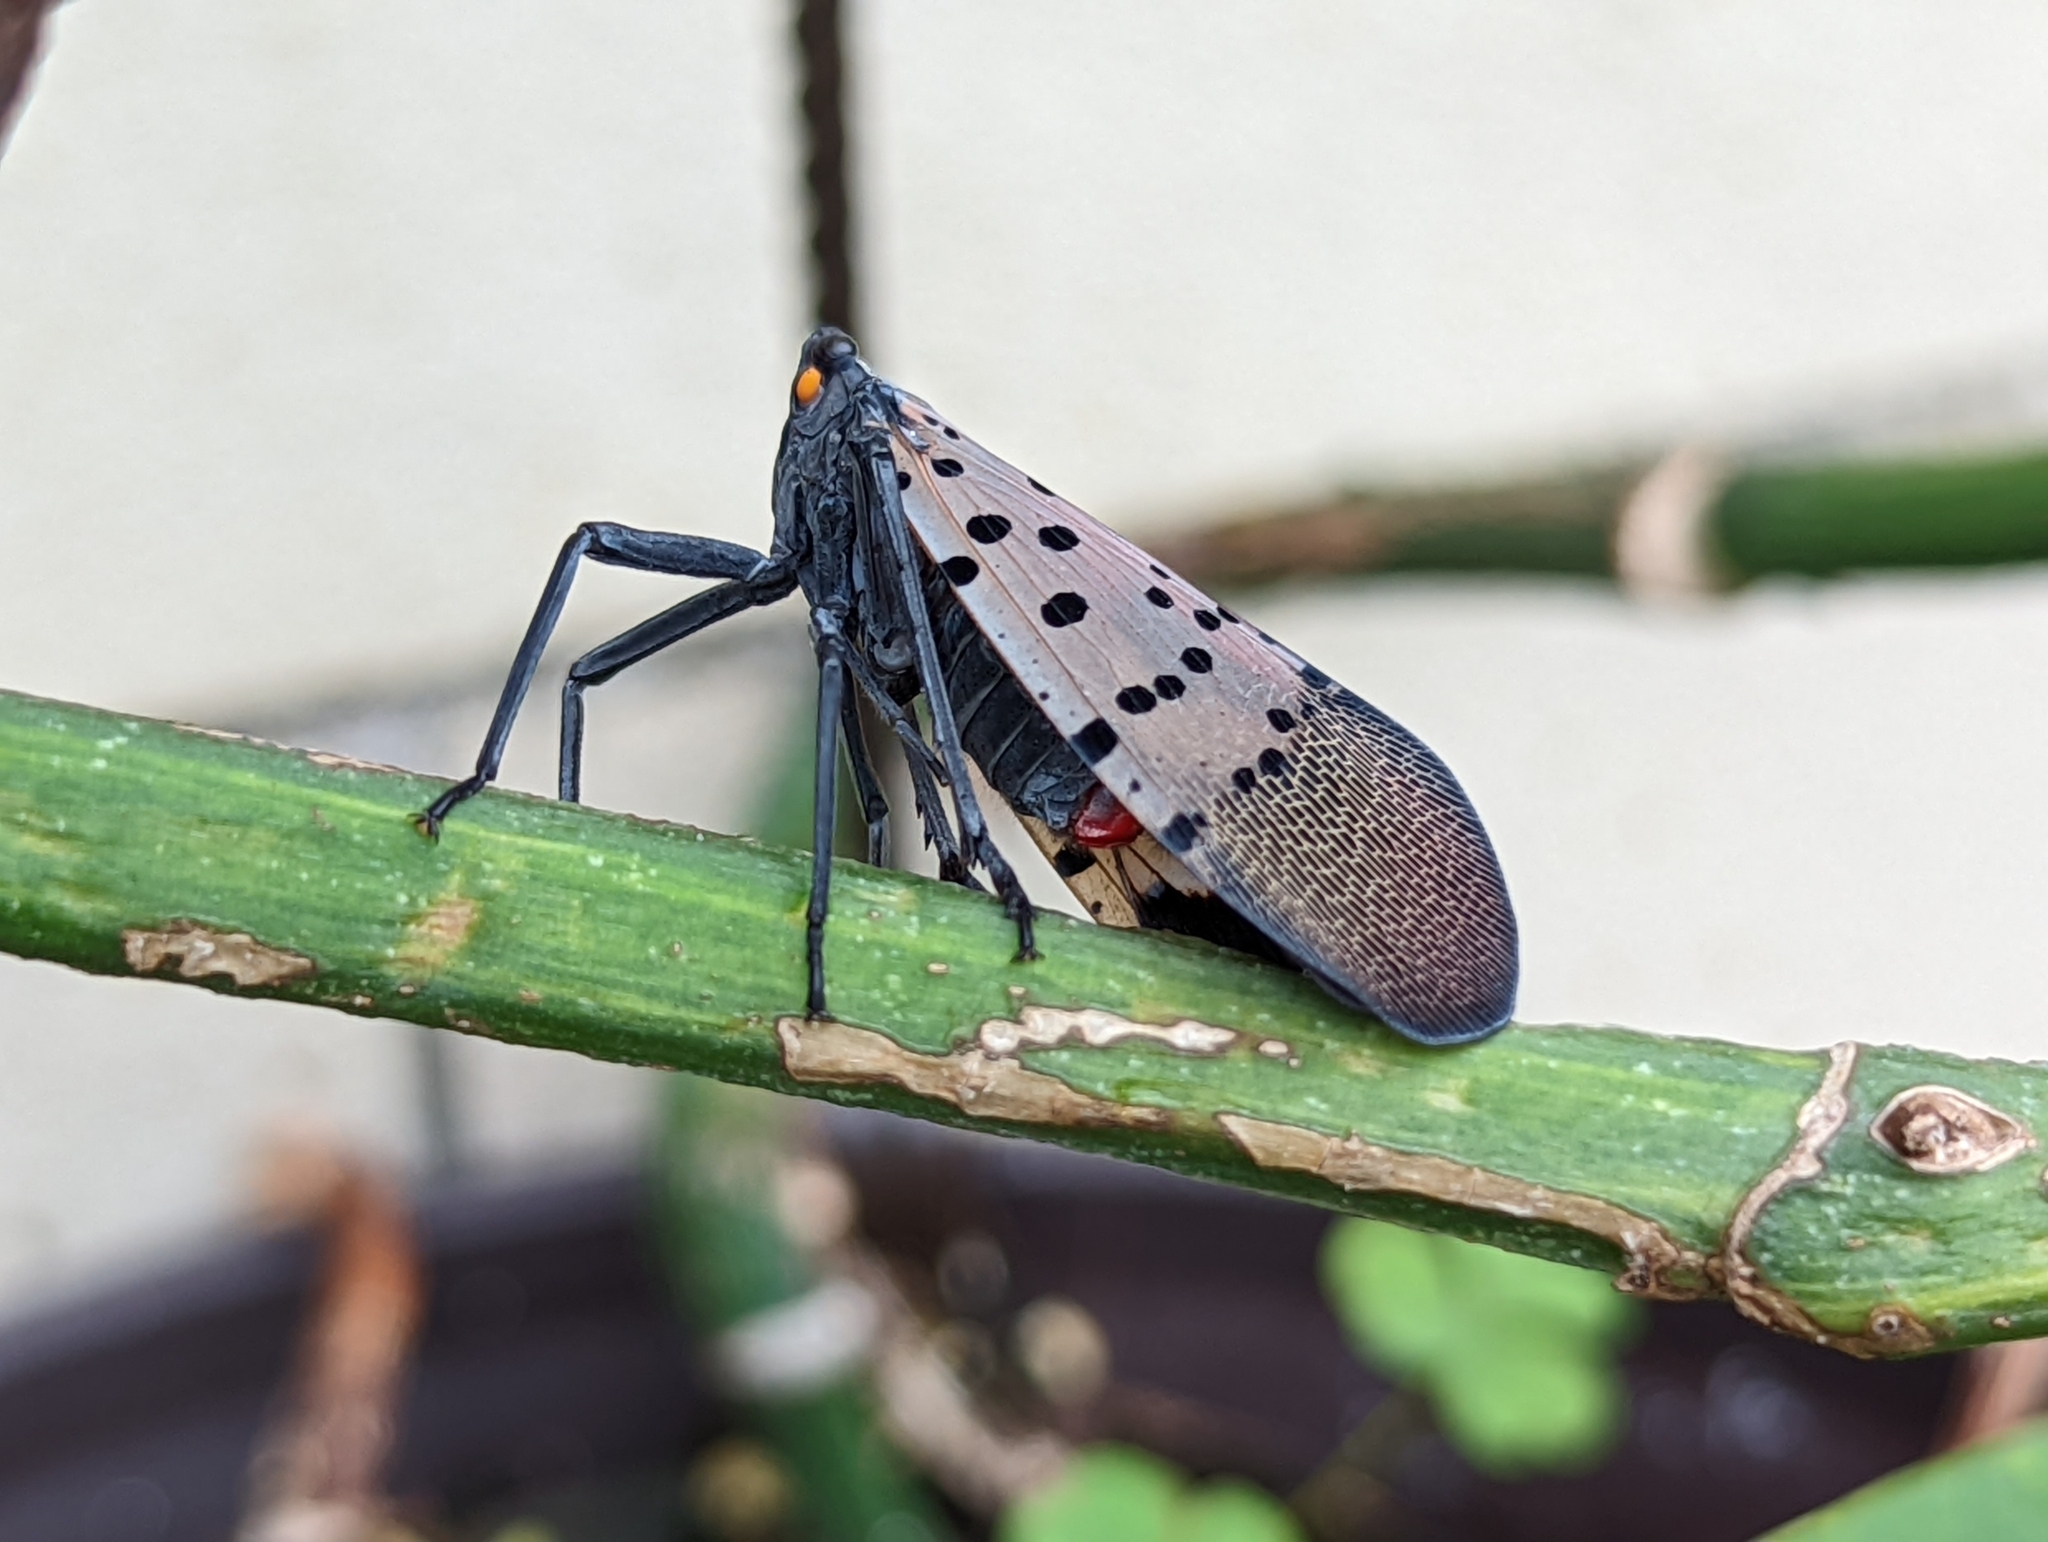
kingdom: Animalia
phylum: Arthropoda
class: Insecta
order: Hemiptera
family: Fulgoridae
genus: Lycorma
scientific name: Lycorma delicatula
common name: Spotted lanternfly
